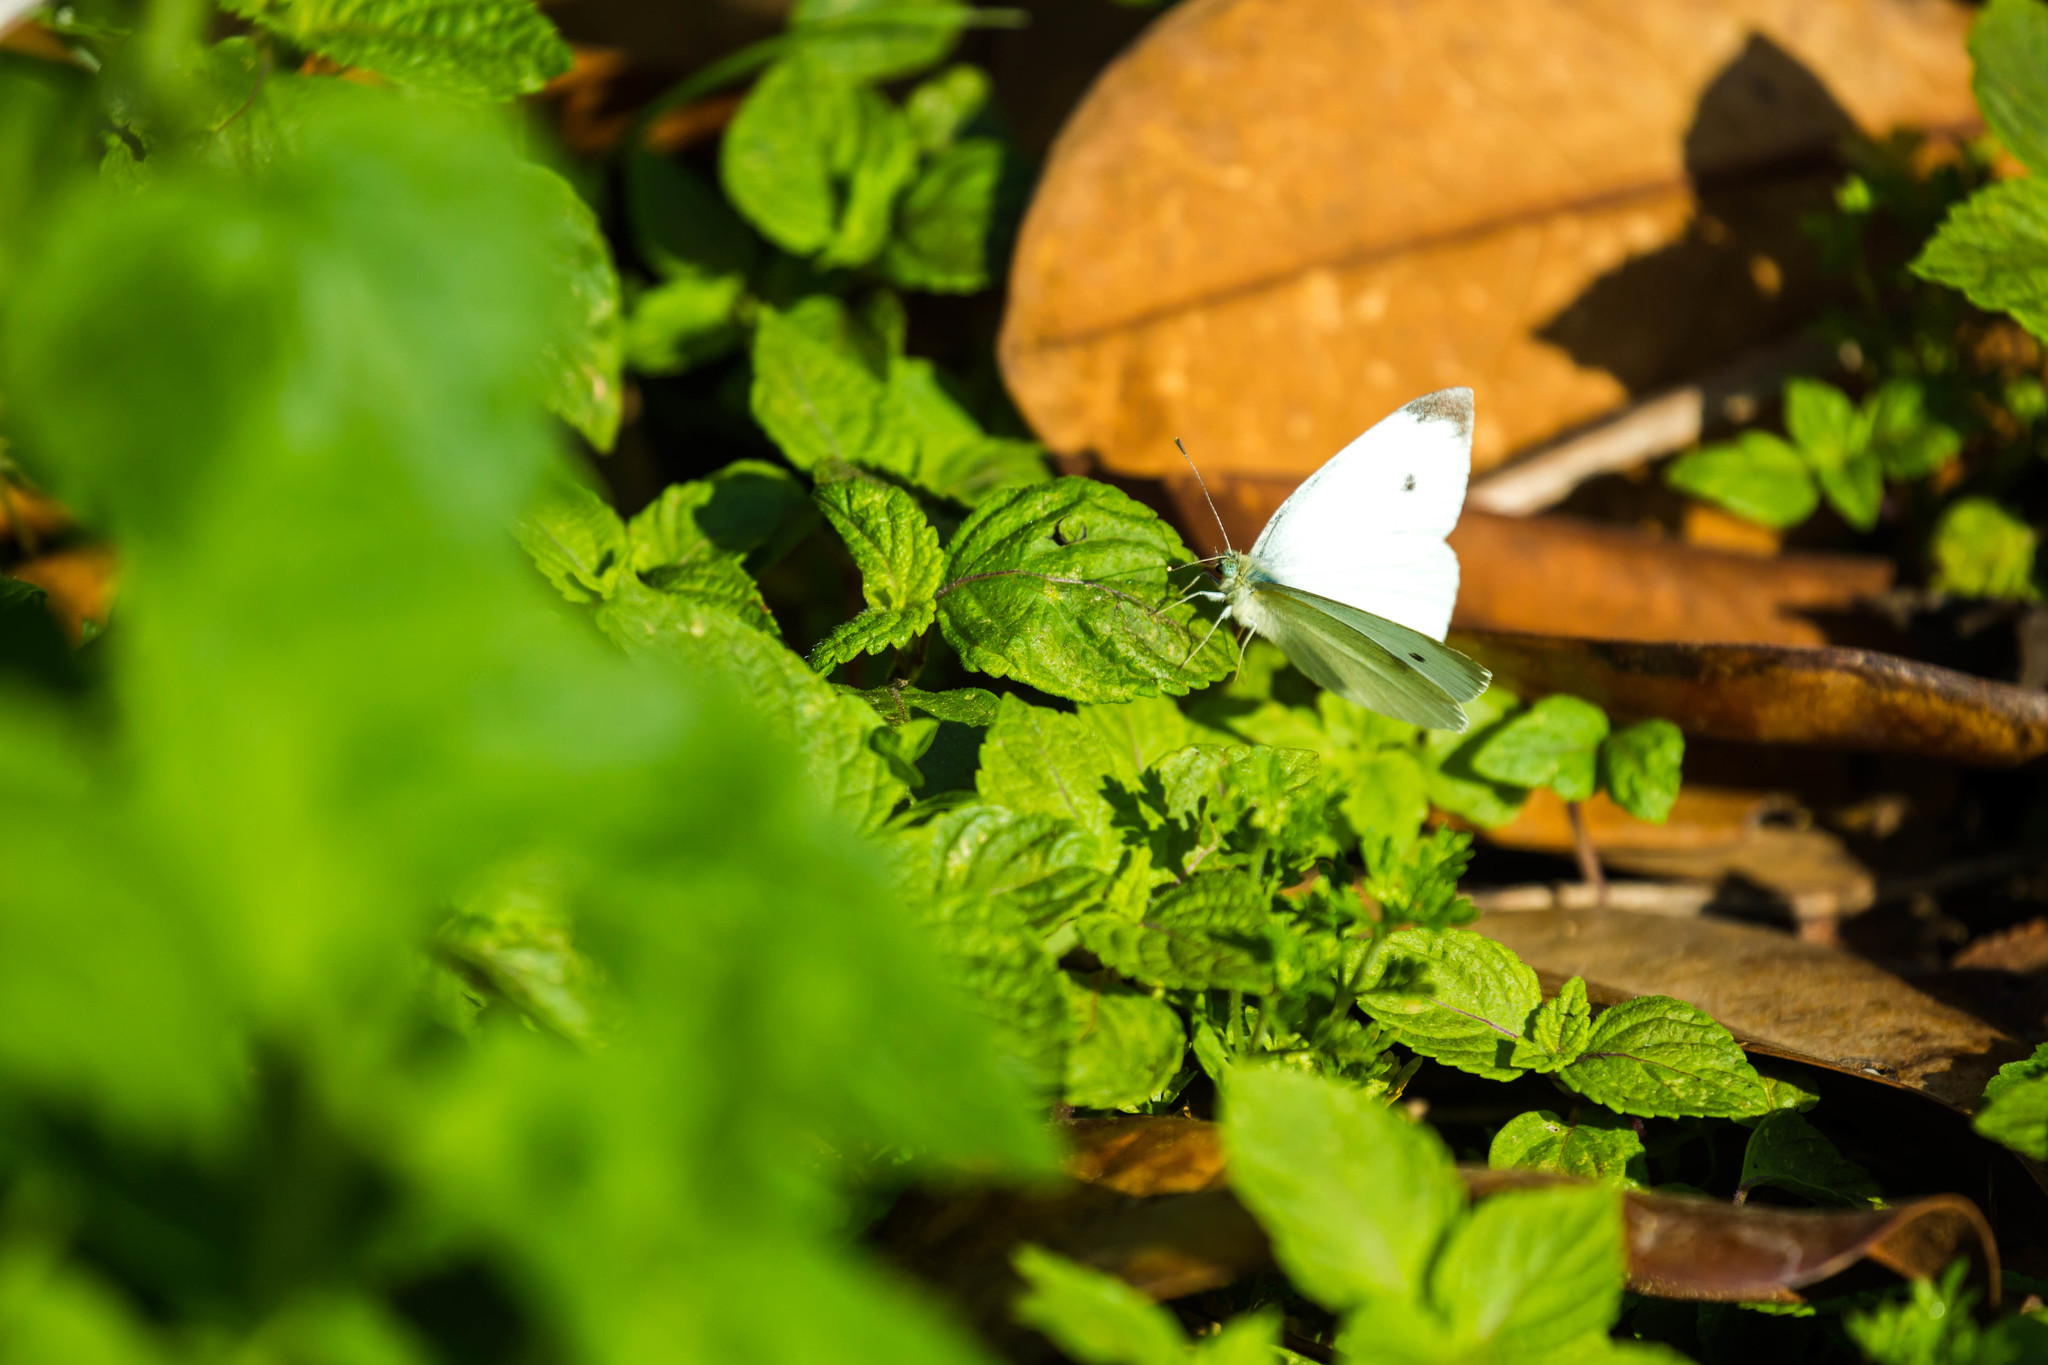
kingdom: Animalia
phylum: Arthropoda
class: Insecta
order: Lepidoptera
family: Pieridae
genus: Pieris
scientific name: Pieris rapae
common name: Small white
